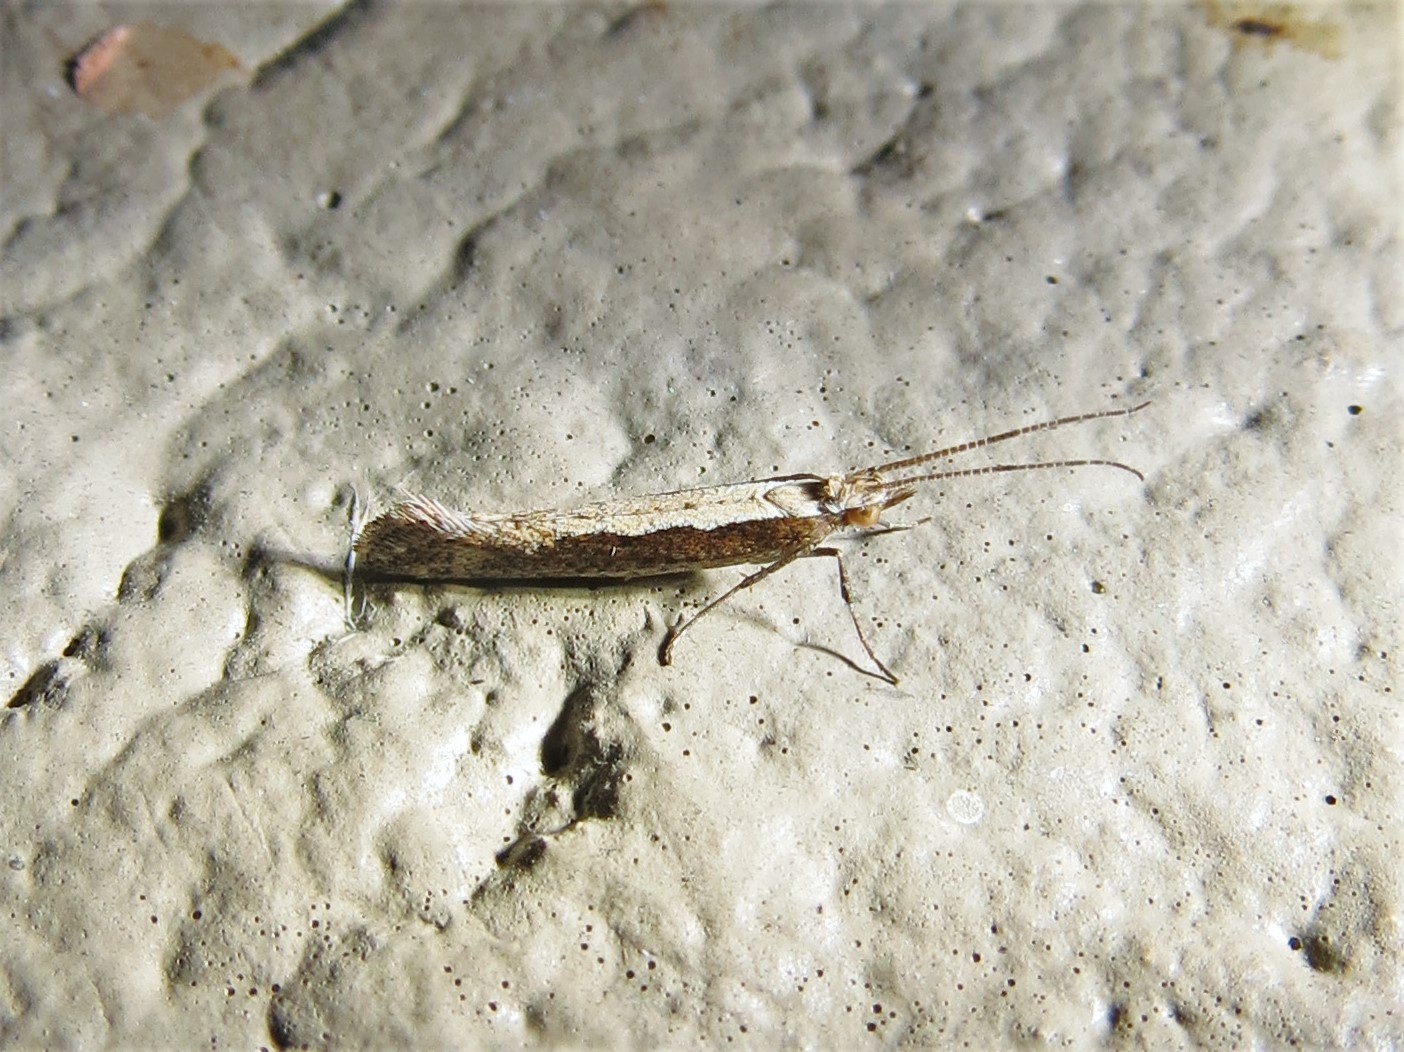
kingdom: Animalia
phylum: Arthropoda
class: Insecta
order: Lepidoptera
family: Plutellidae
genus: Plutella
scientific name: Plutella xylostella
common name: Diamond-back moth
